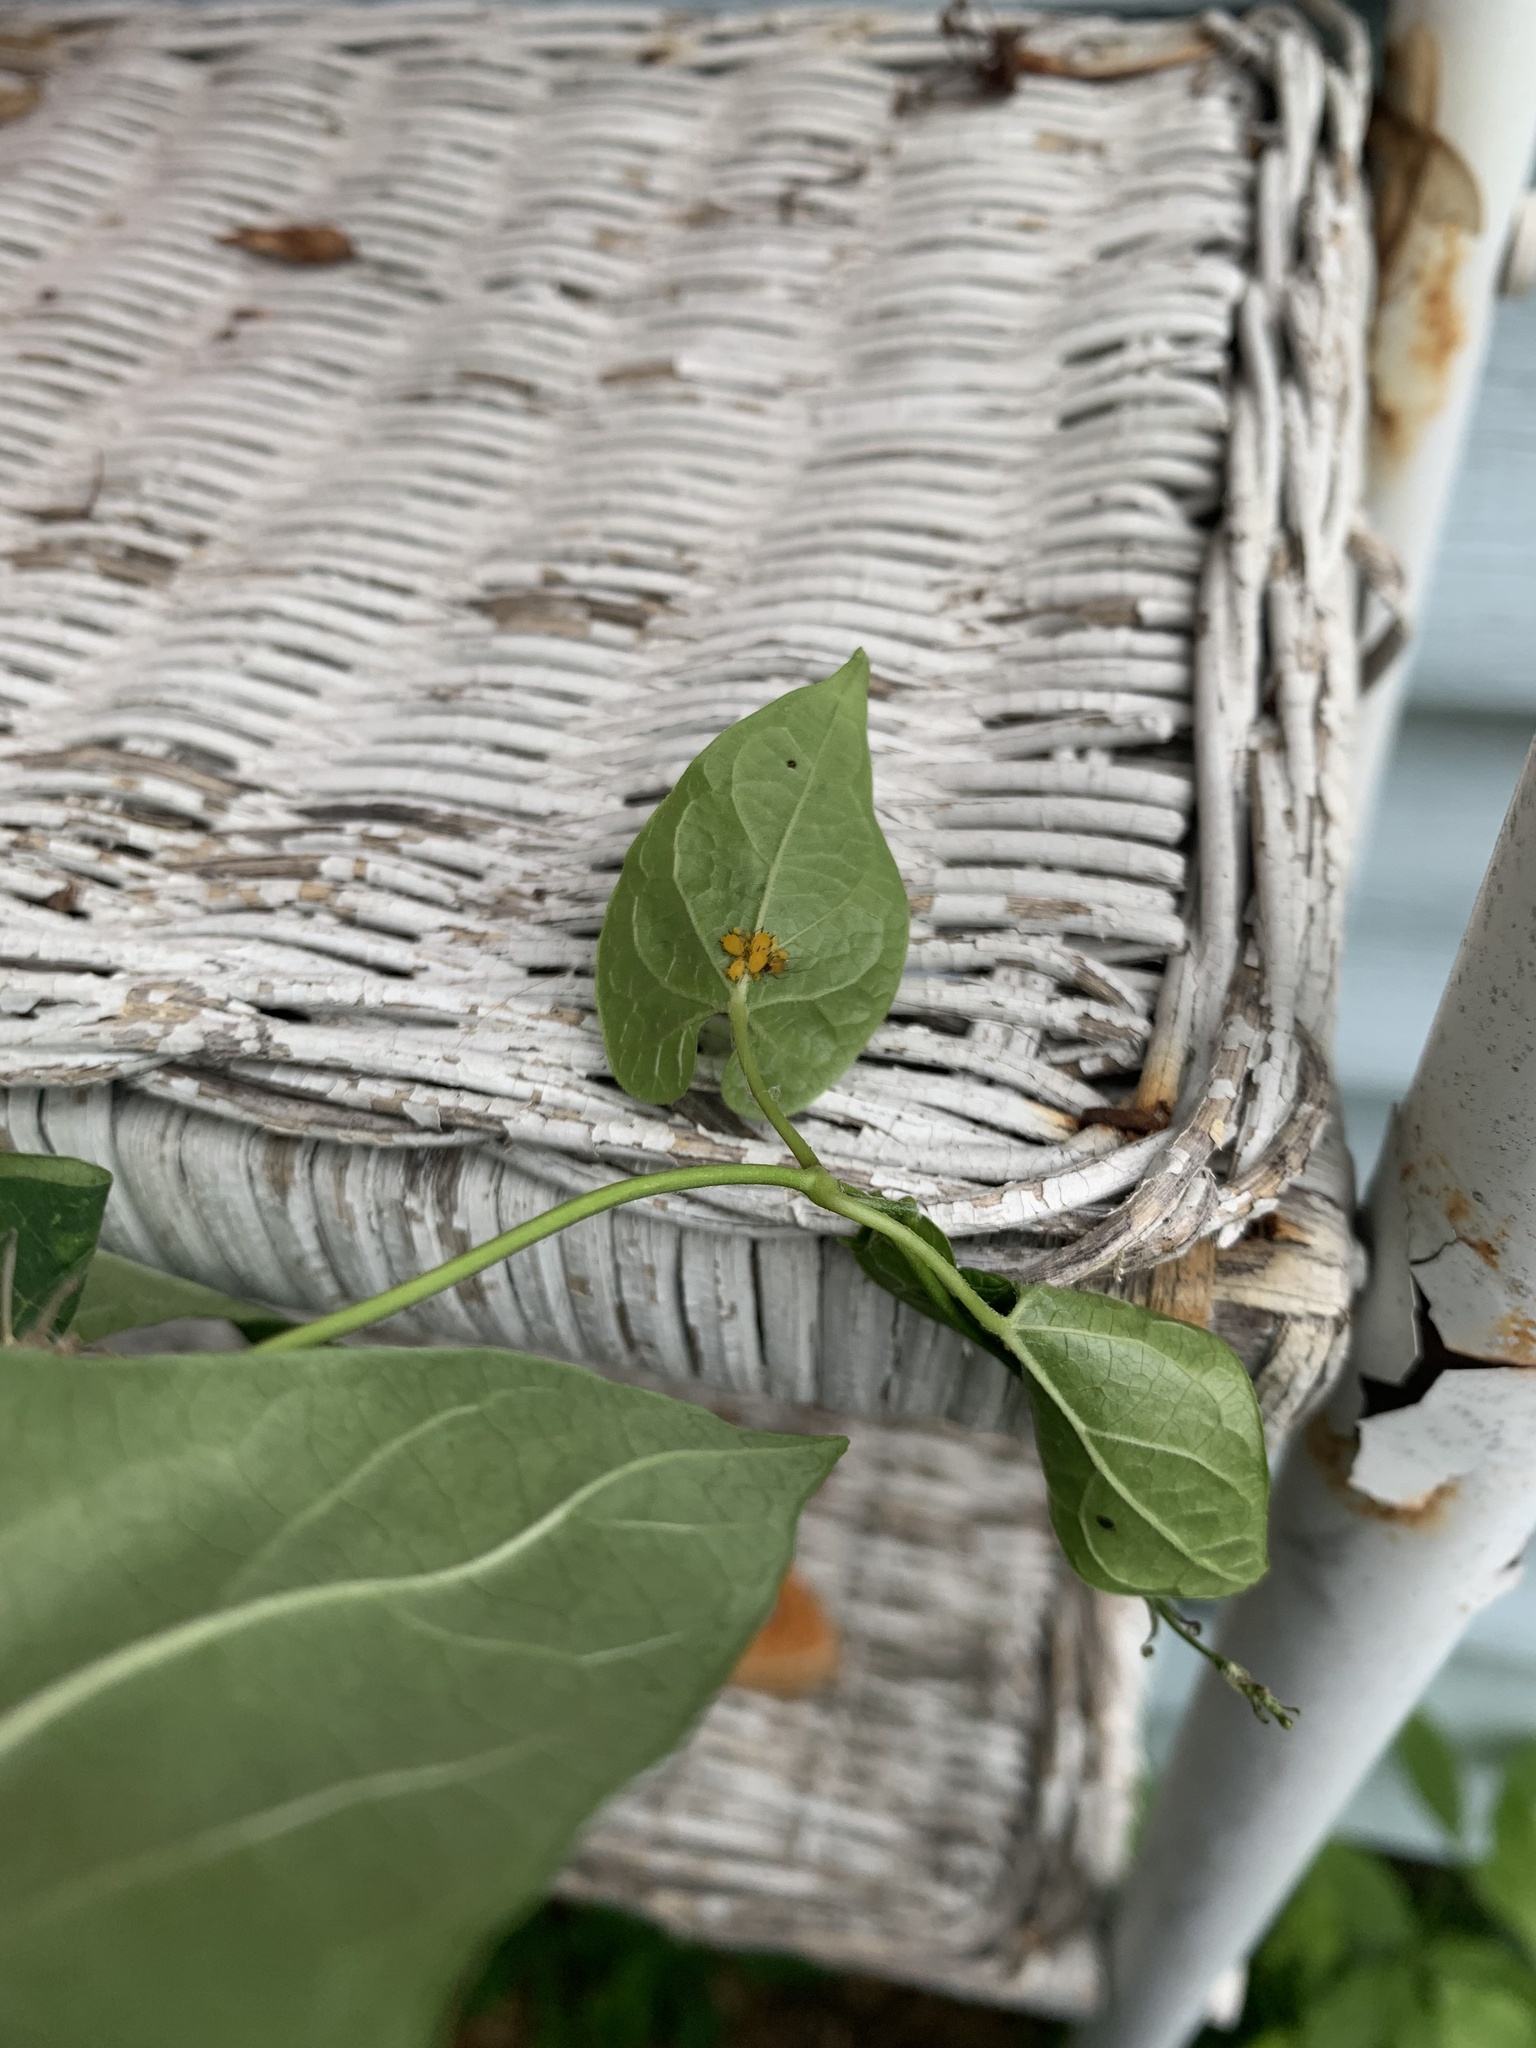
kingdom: Animalia
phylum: Arthropoda
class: Insecta
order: Hemiptera
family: Aphididae
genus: Aphis
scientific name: Aphis nerii
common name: Oleander aphid
